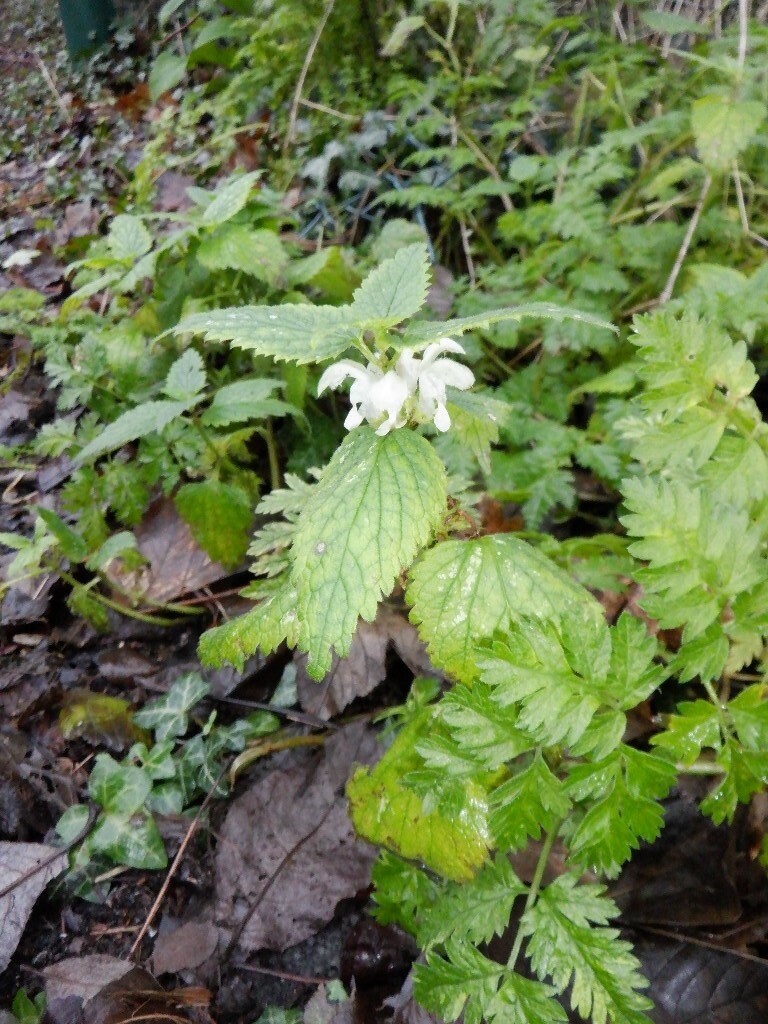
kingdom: Plantae
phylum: Tracheophyta
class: Magnoliopsida
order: Lamiales
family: Lamiaceae
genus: Lamium
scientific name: Lamium album
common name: White dead-nettle
